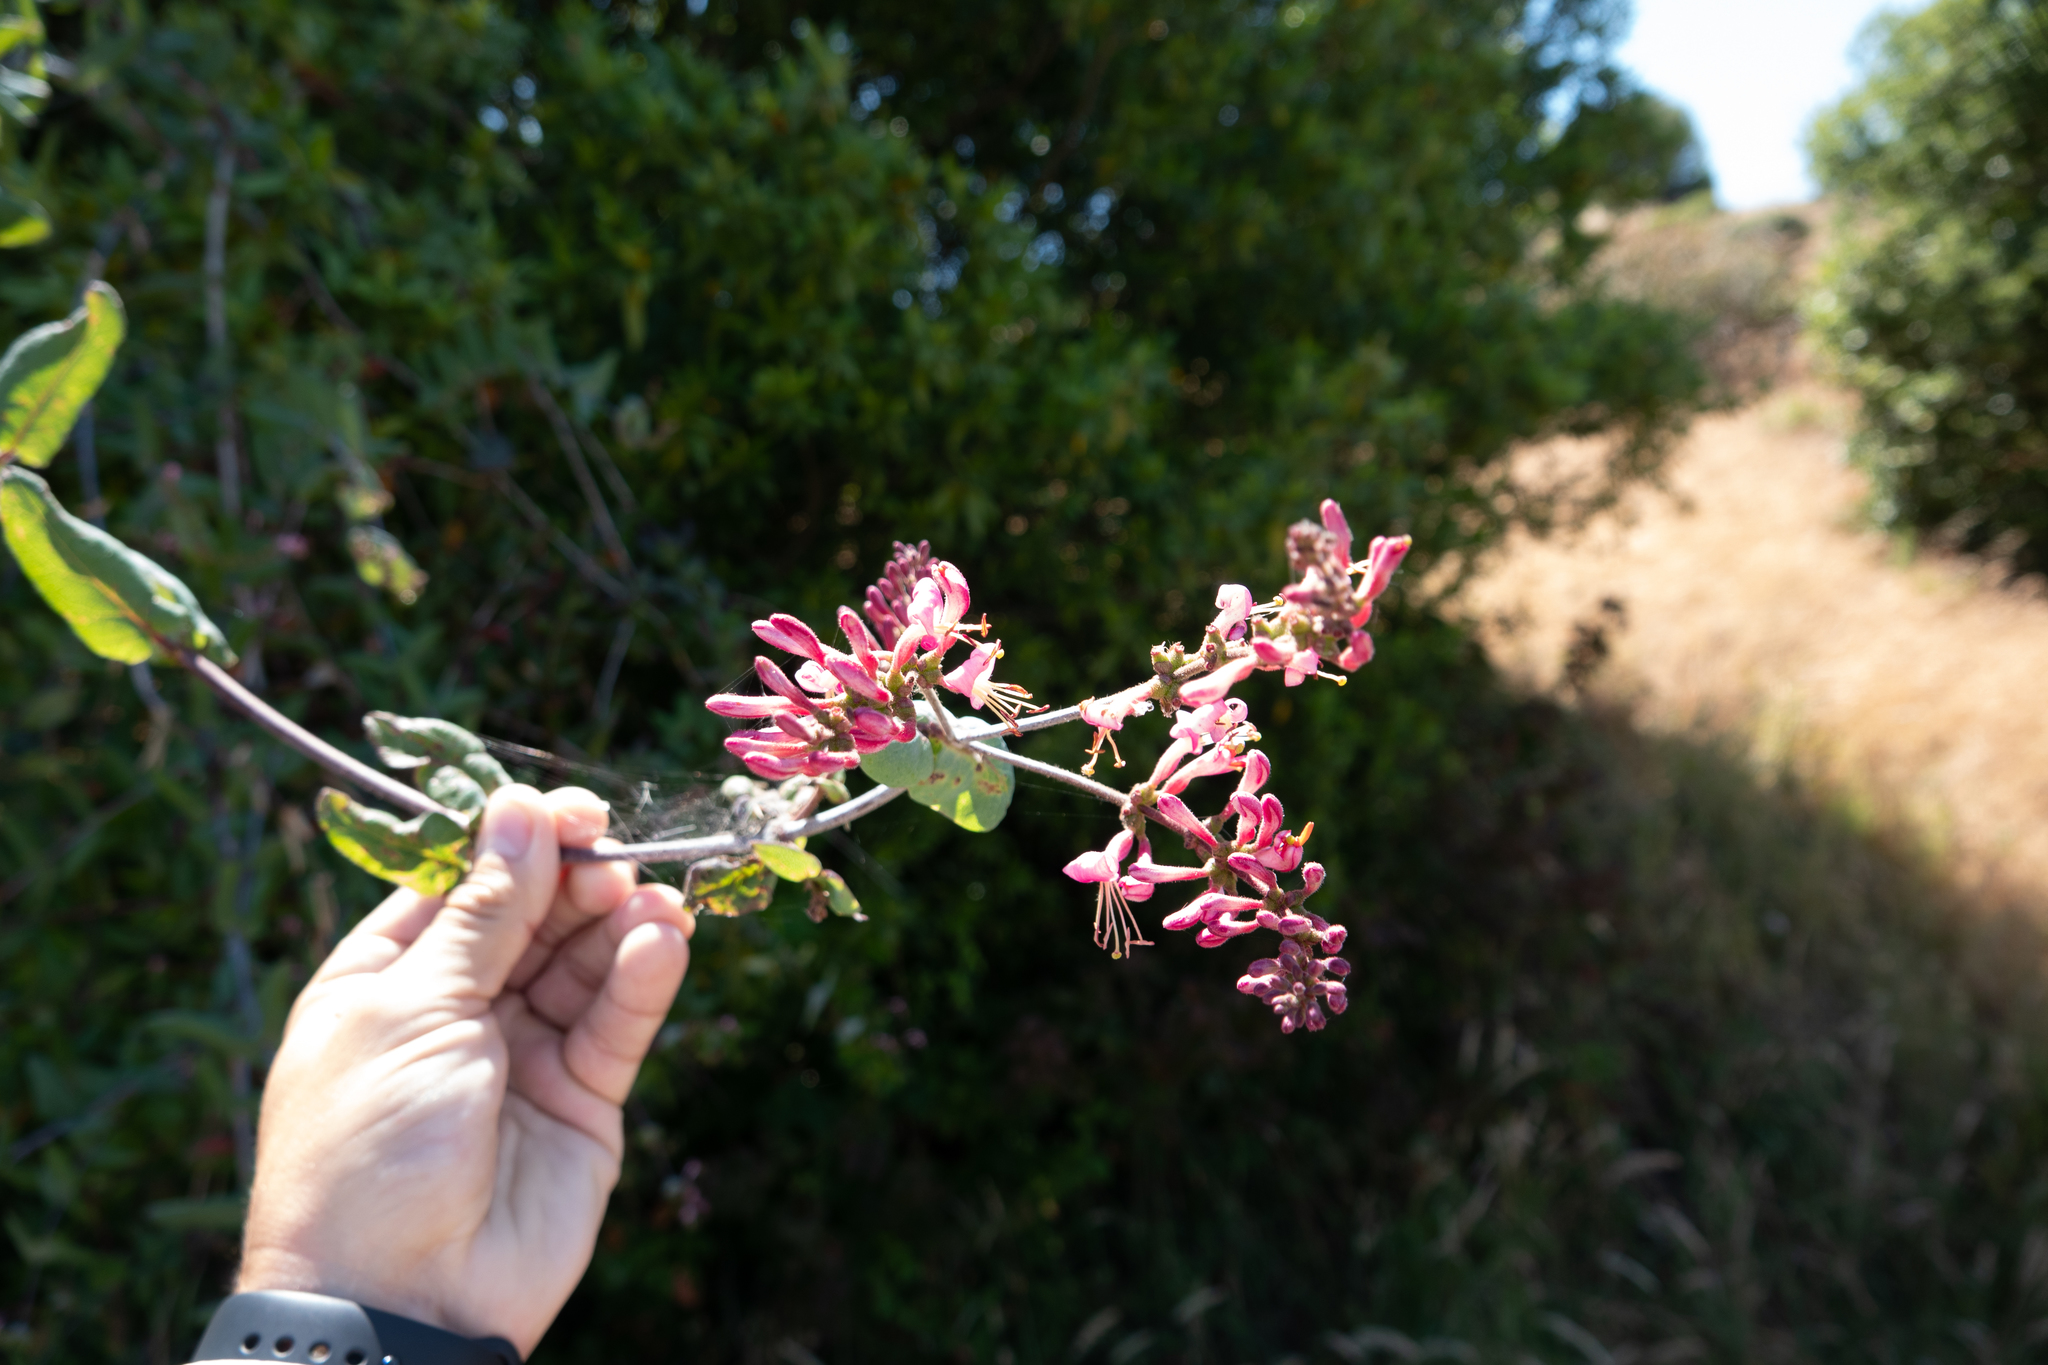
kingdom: Plantae
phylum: Tracheophyta
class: Magnoliopsida
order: Dipsacales
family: Caprifoliaceae
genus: Lonicera
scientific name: Lonicera hispidula
